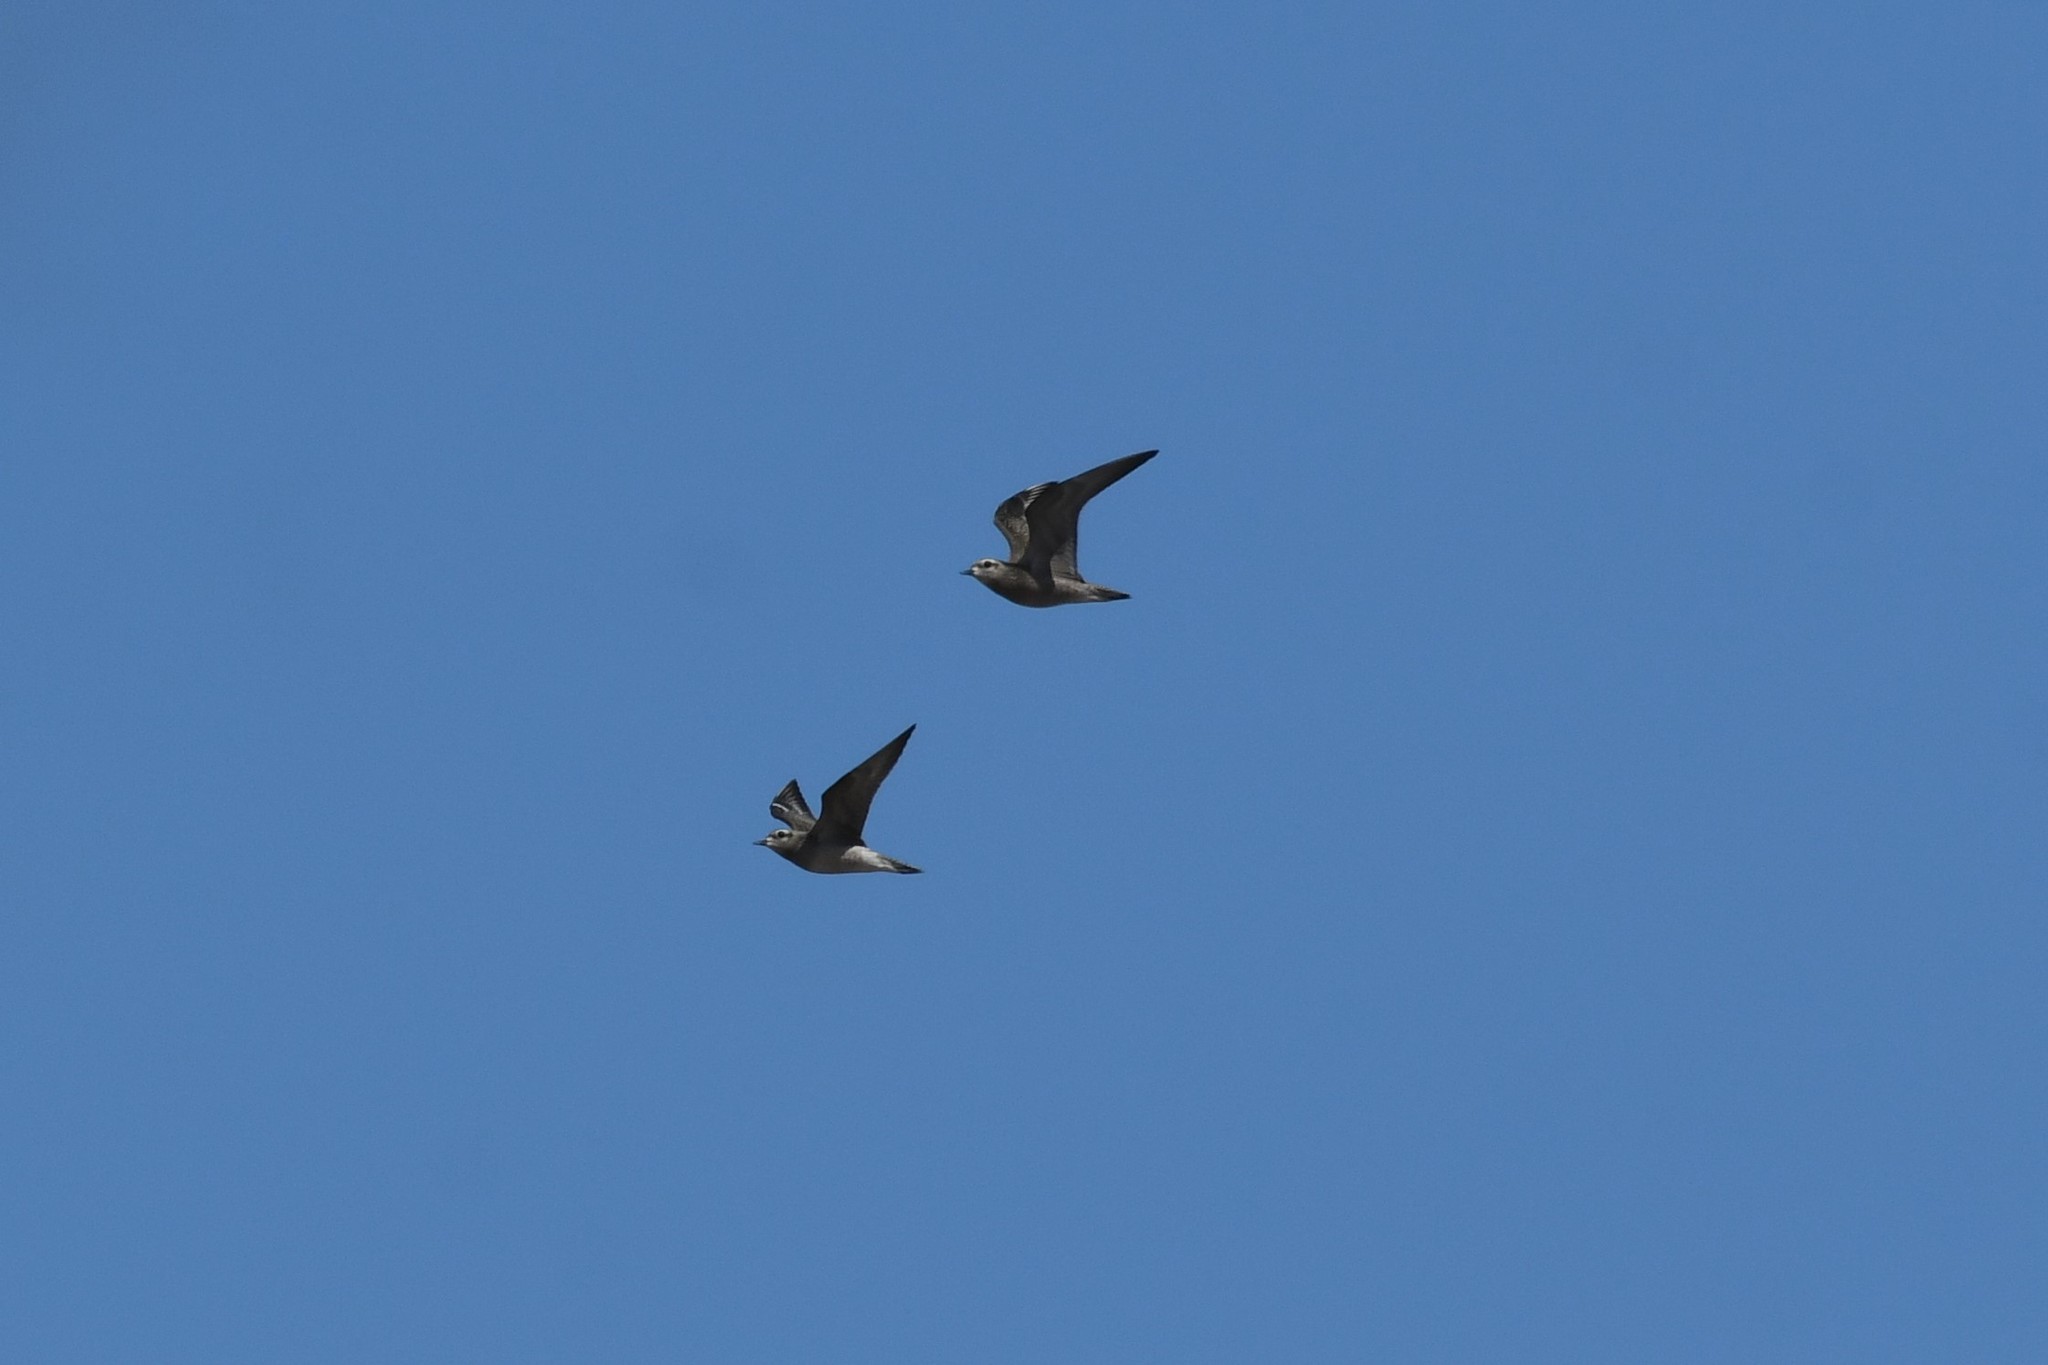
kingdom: Animalia
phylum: Chordata
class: Aves
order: Charadriiformes
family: Charadriidae
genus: Pluvialis
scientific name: Pluvialis dominica
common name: American golden plover
